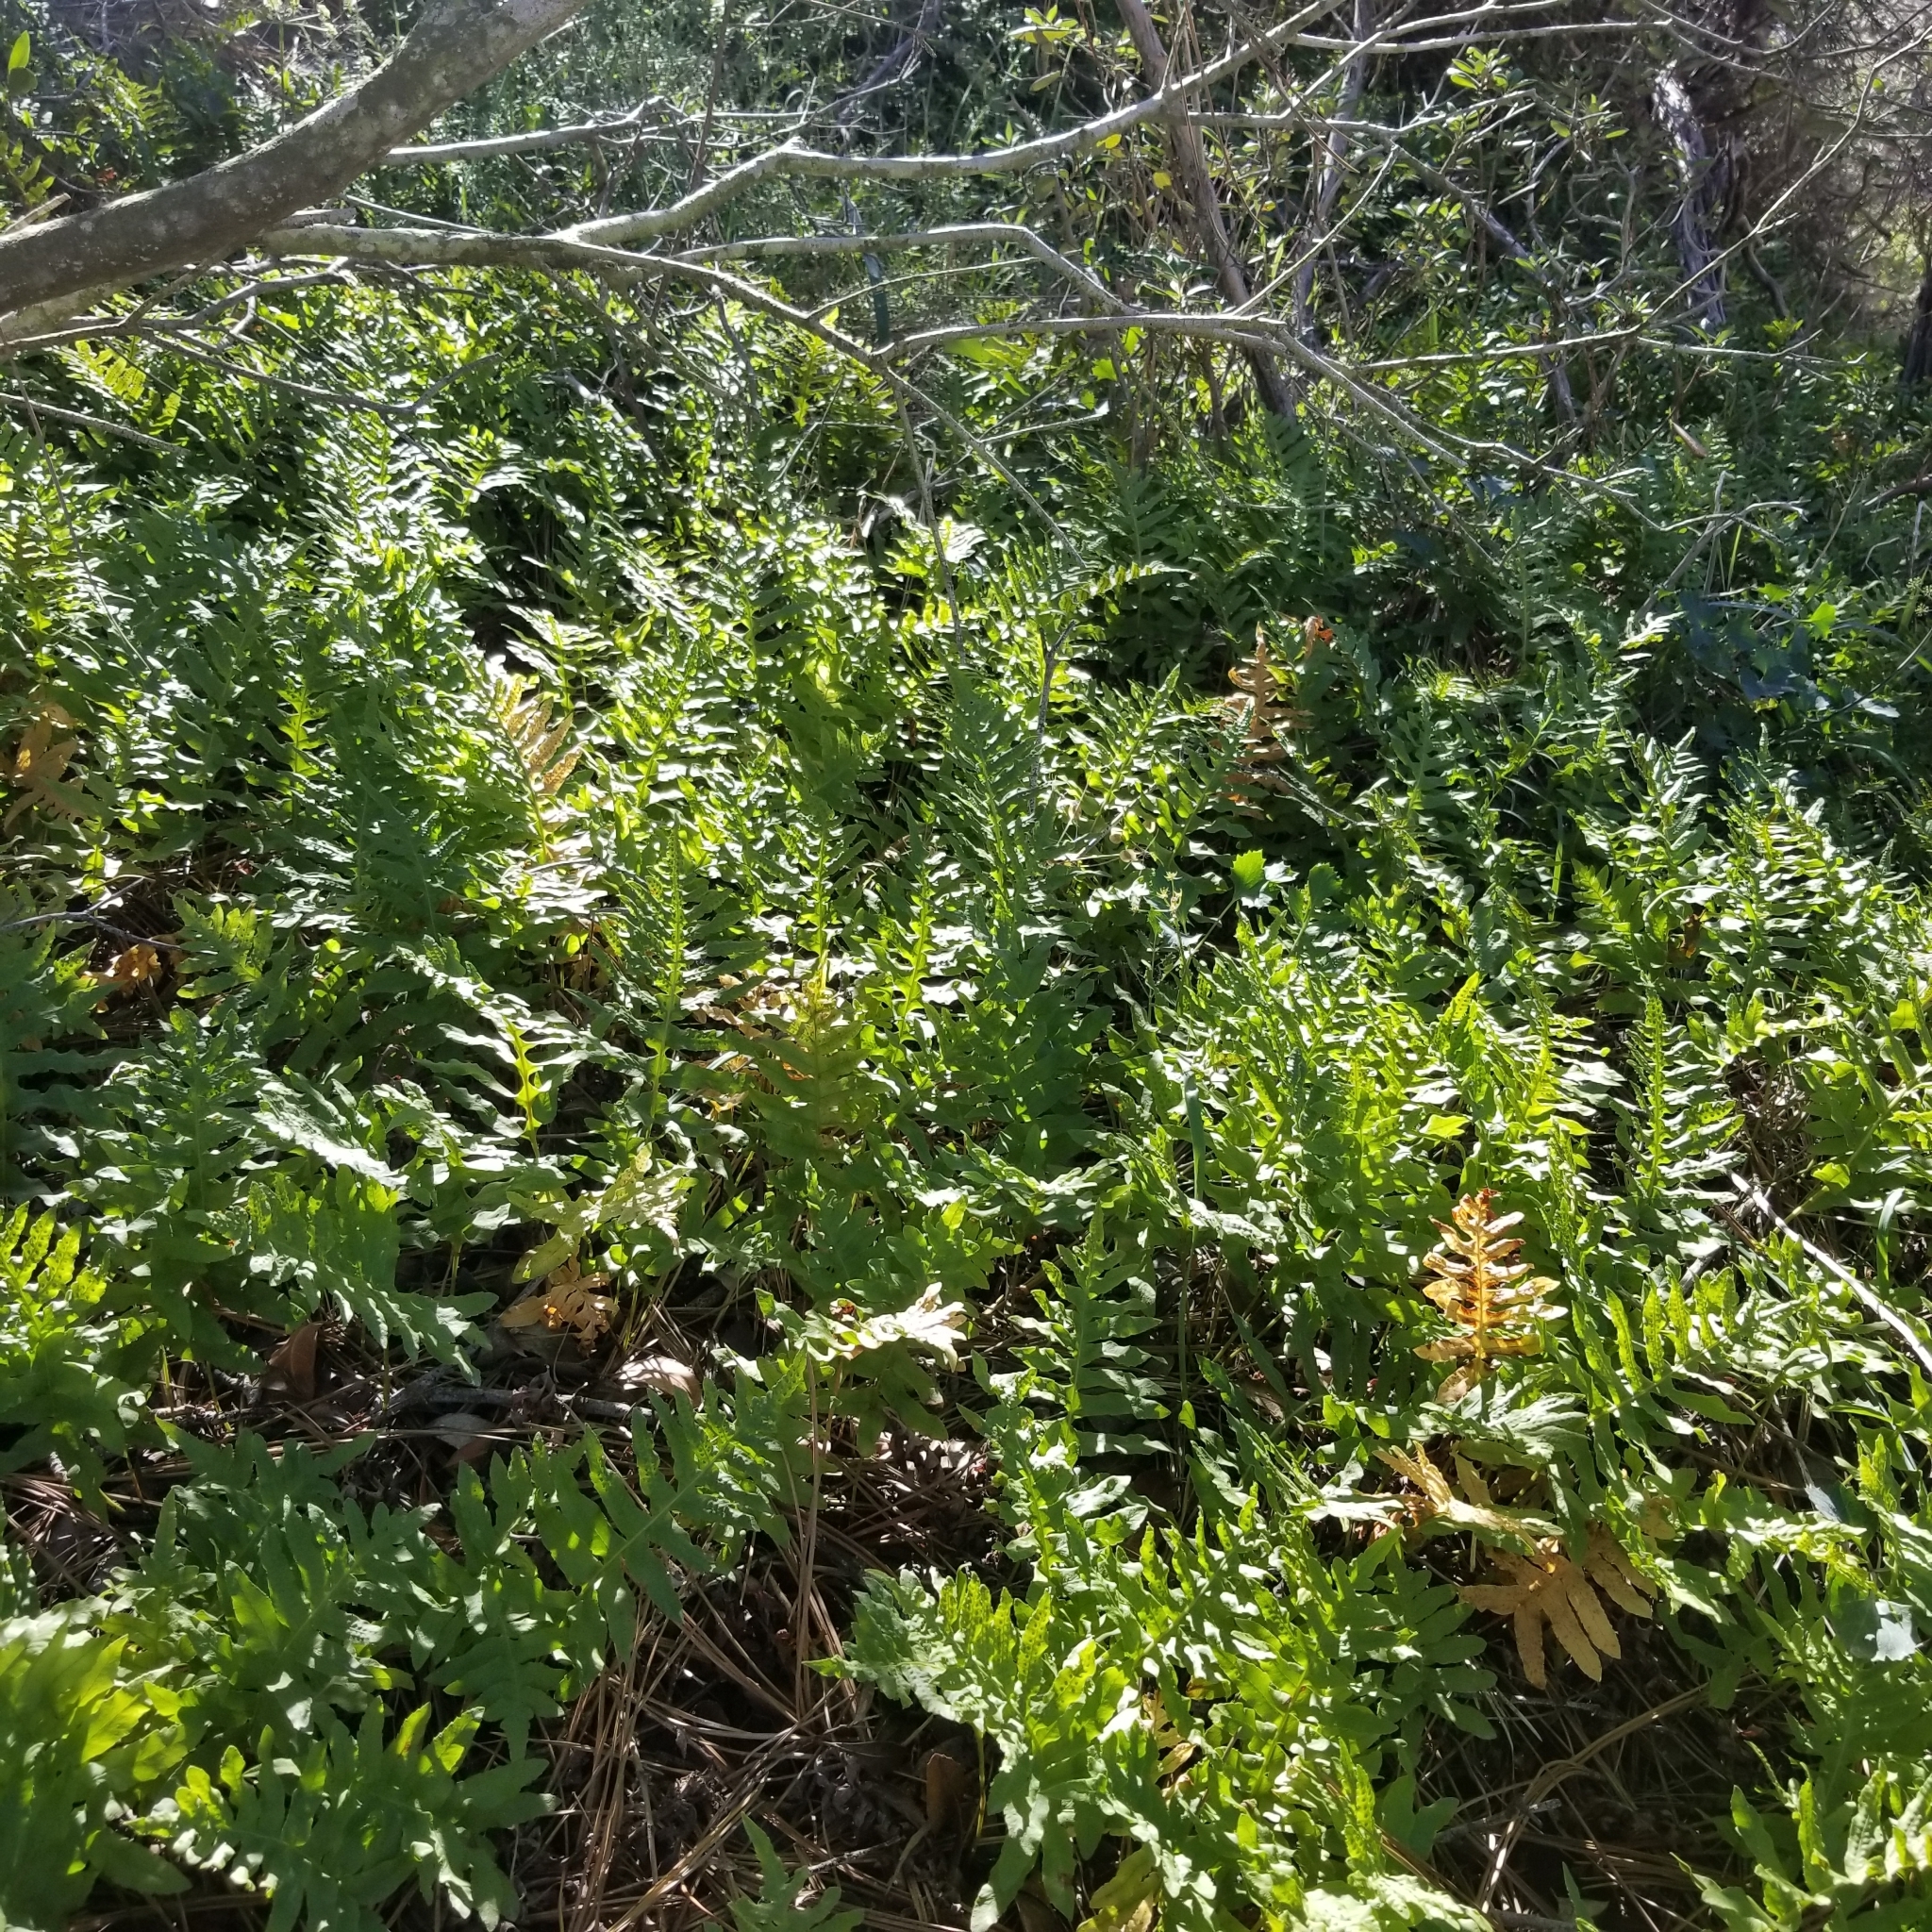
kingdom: Plantae
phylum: Tracheophyta
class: Polypodiopsida
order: Polypodiales
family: Polypodiaceae
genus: Polypodium
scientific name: Polypodium californicum
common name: California polypody
